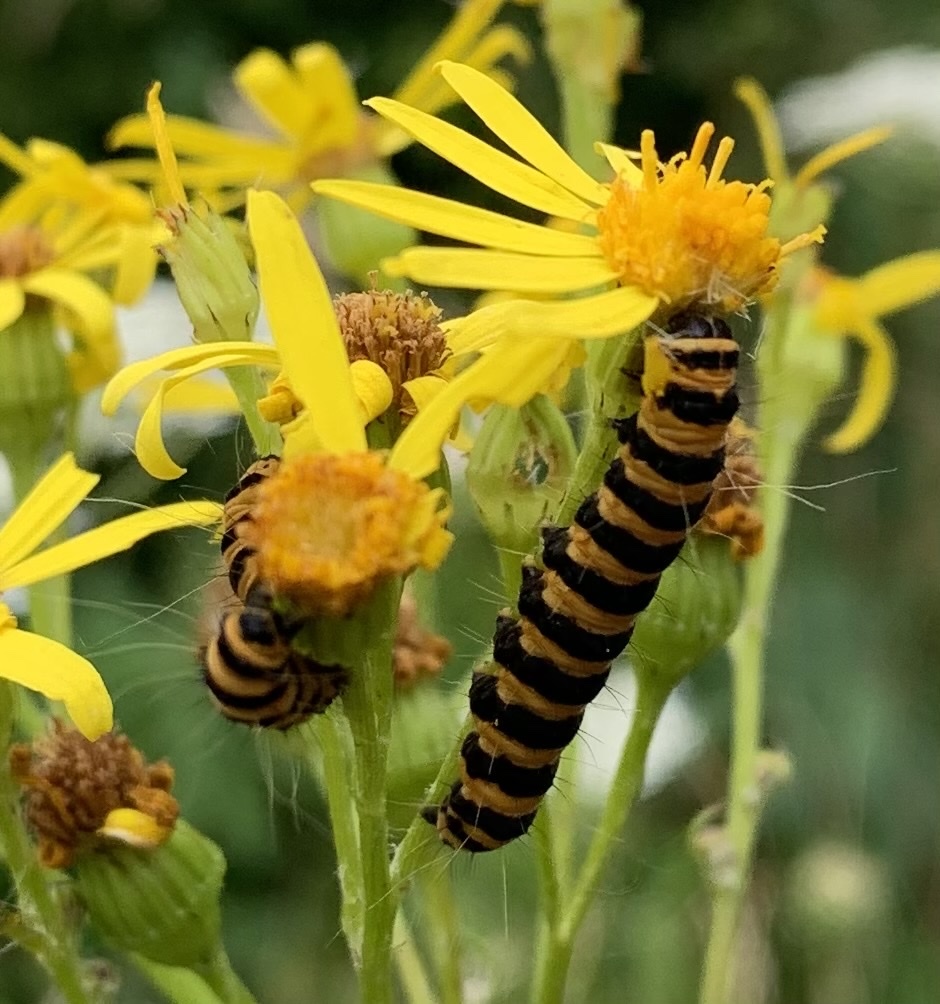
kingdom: Animalia
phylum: Arthropoda
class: Insecta
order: Lepidoptera
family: Erebidae
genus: Tyria
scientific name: Tyria jacobaeae
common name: Cinnabar
